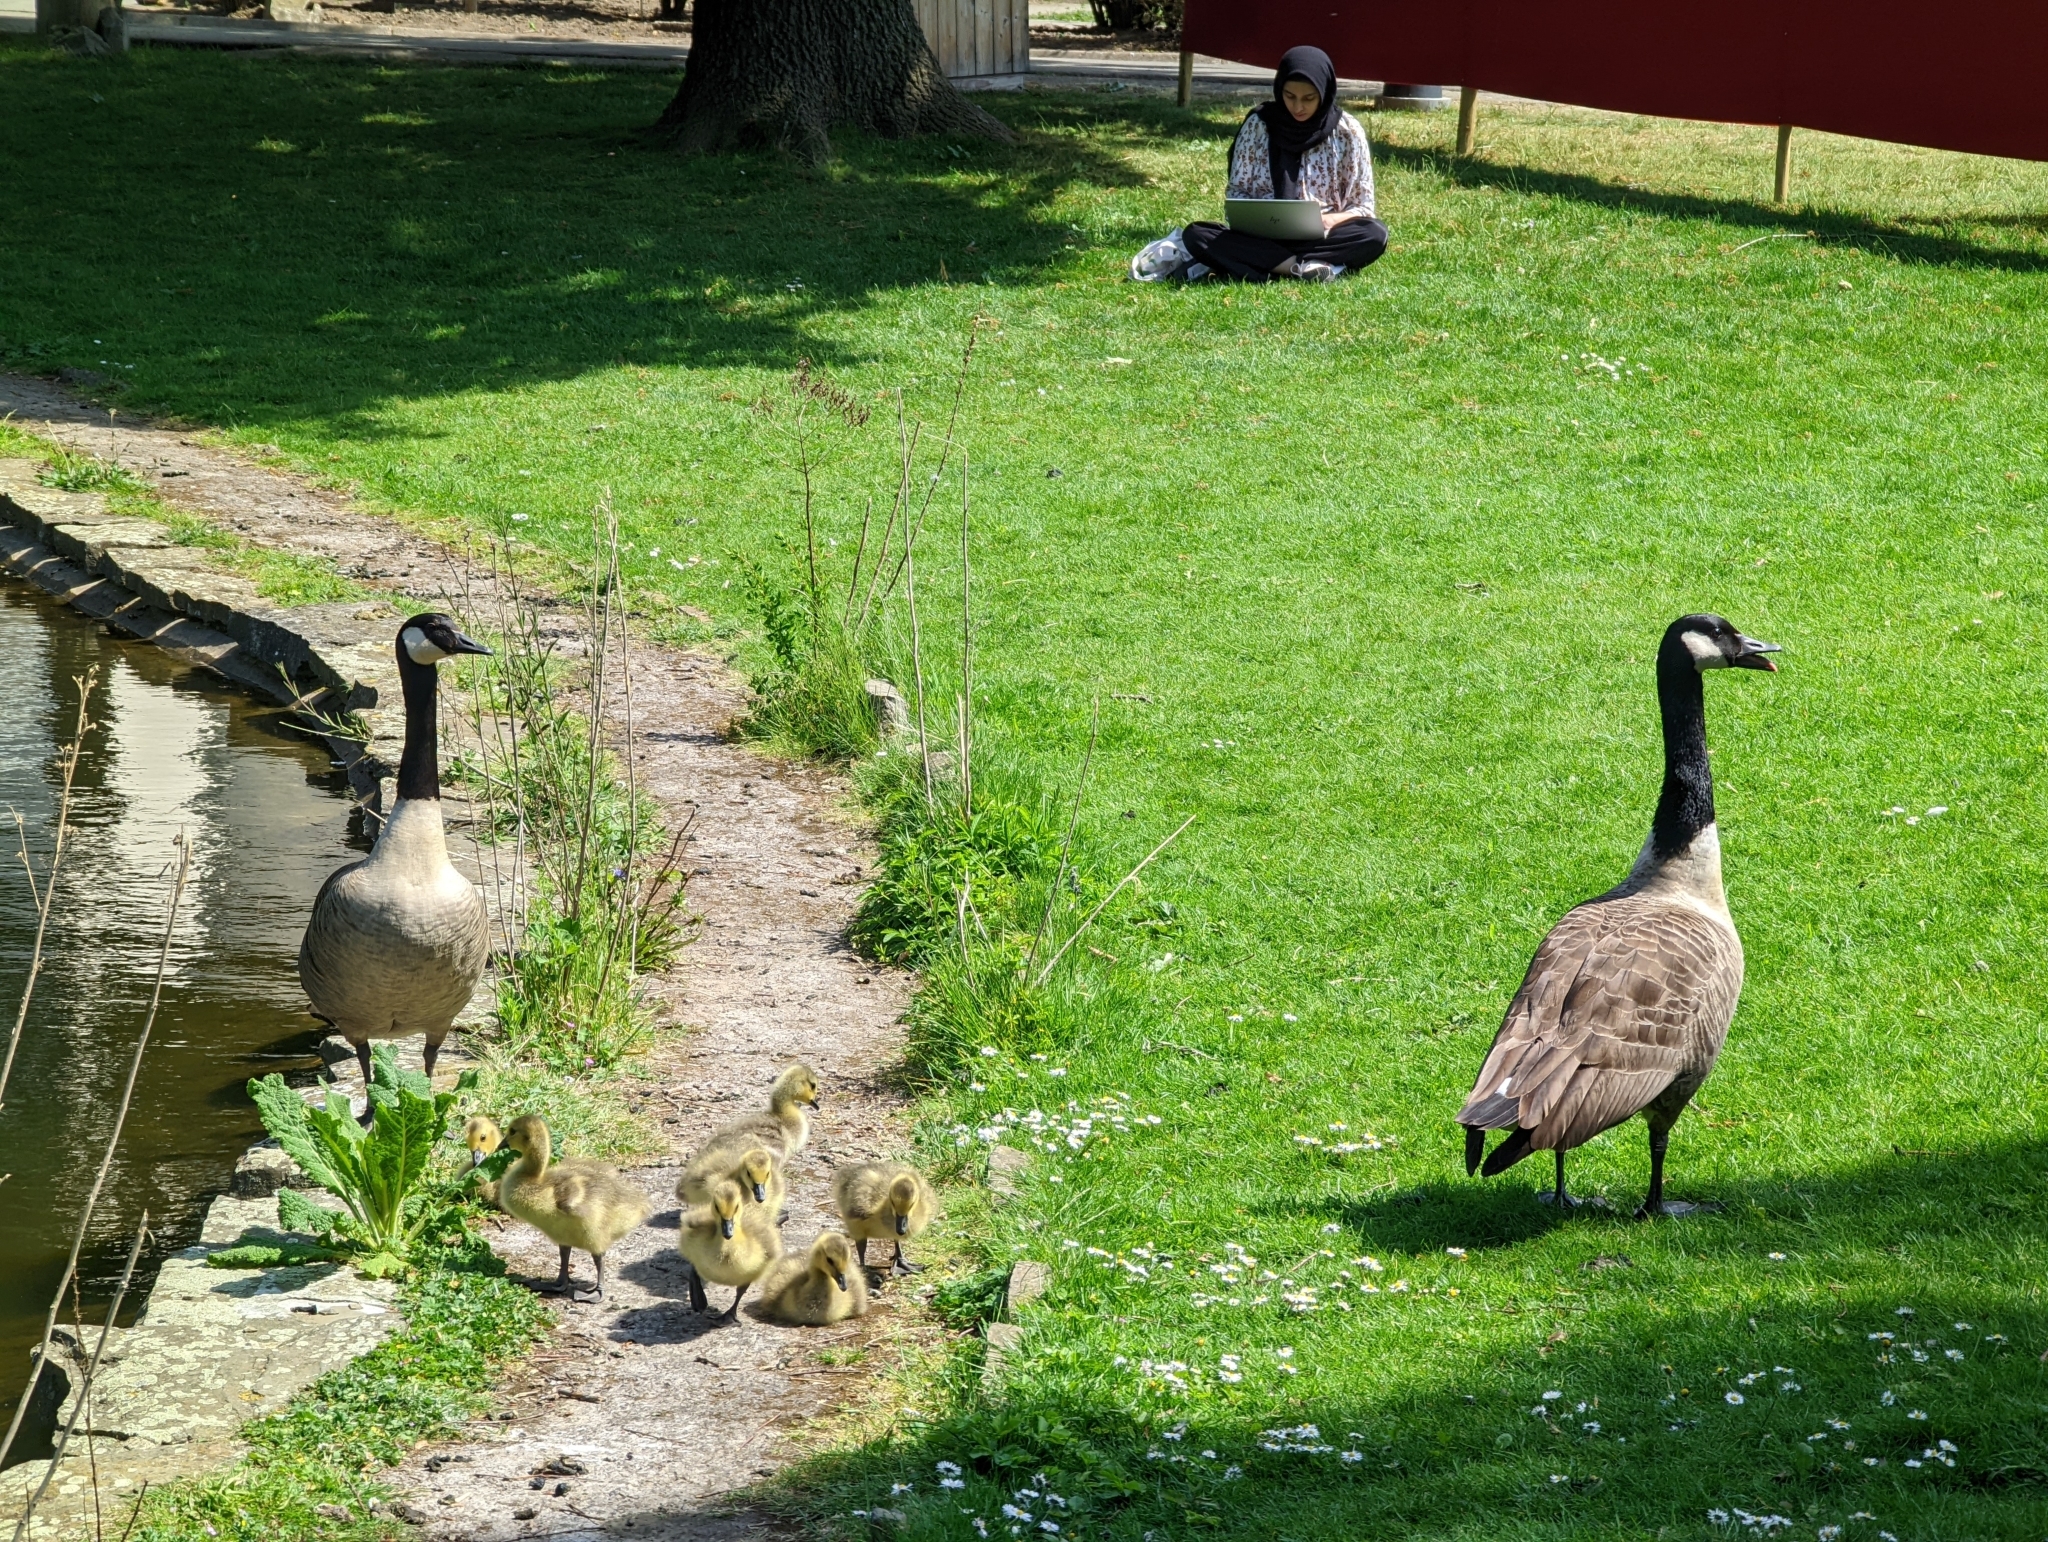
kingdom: Animalia
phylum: Chordata
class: Aves
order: Anseriformes
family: Anatidae
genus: Branta
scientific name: Branta canadensis
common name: Canada goose
